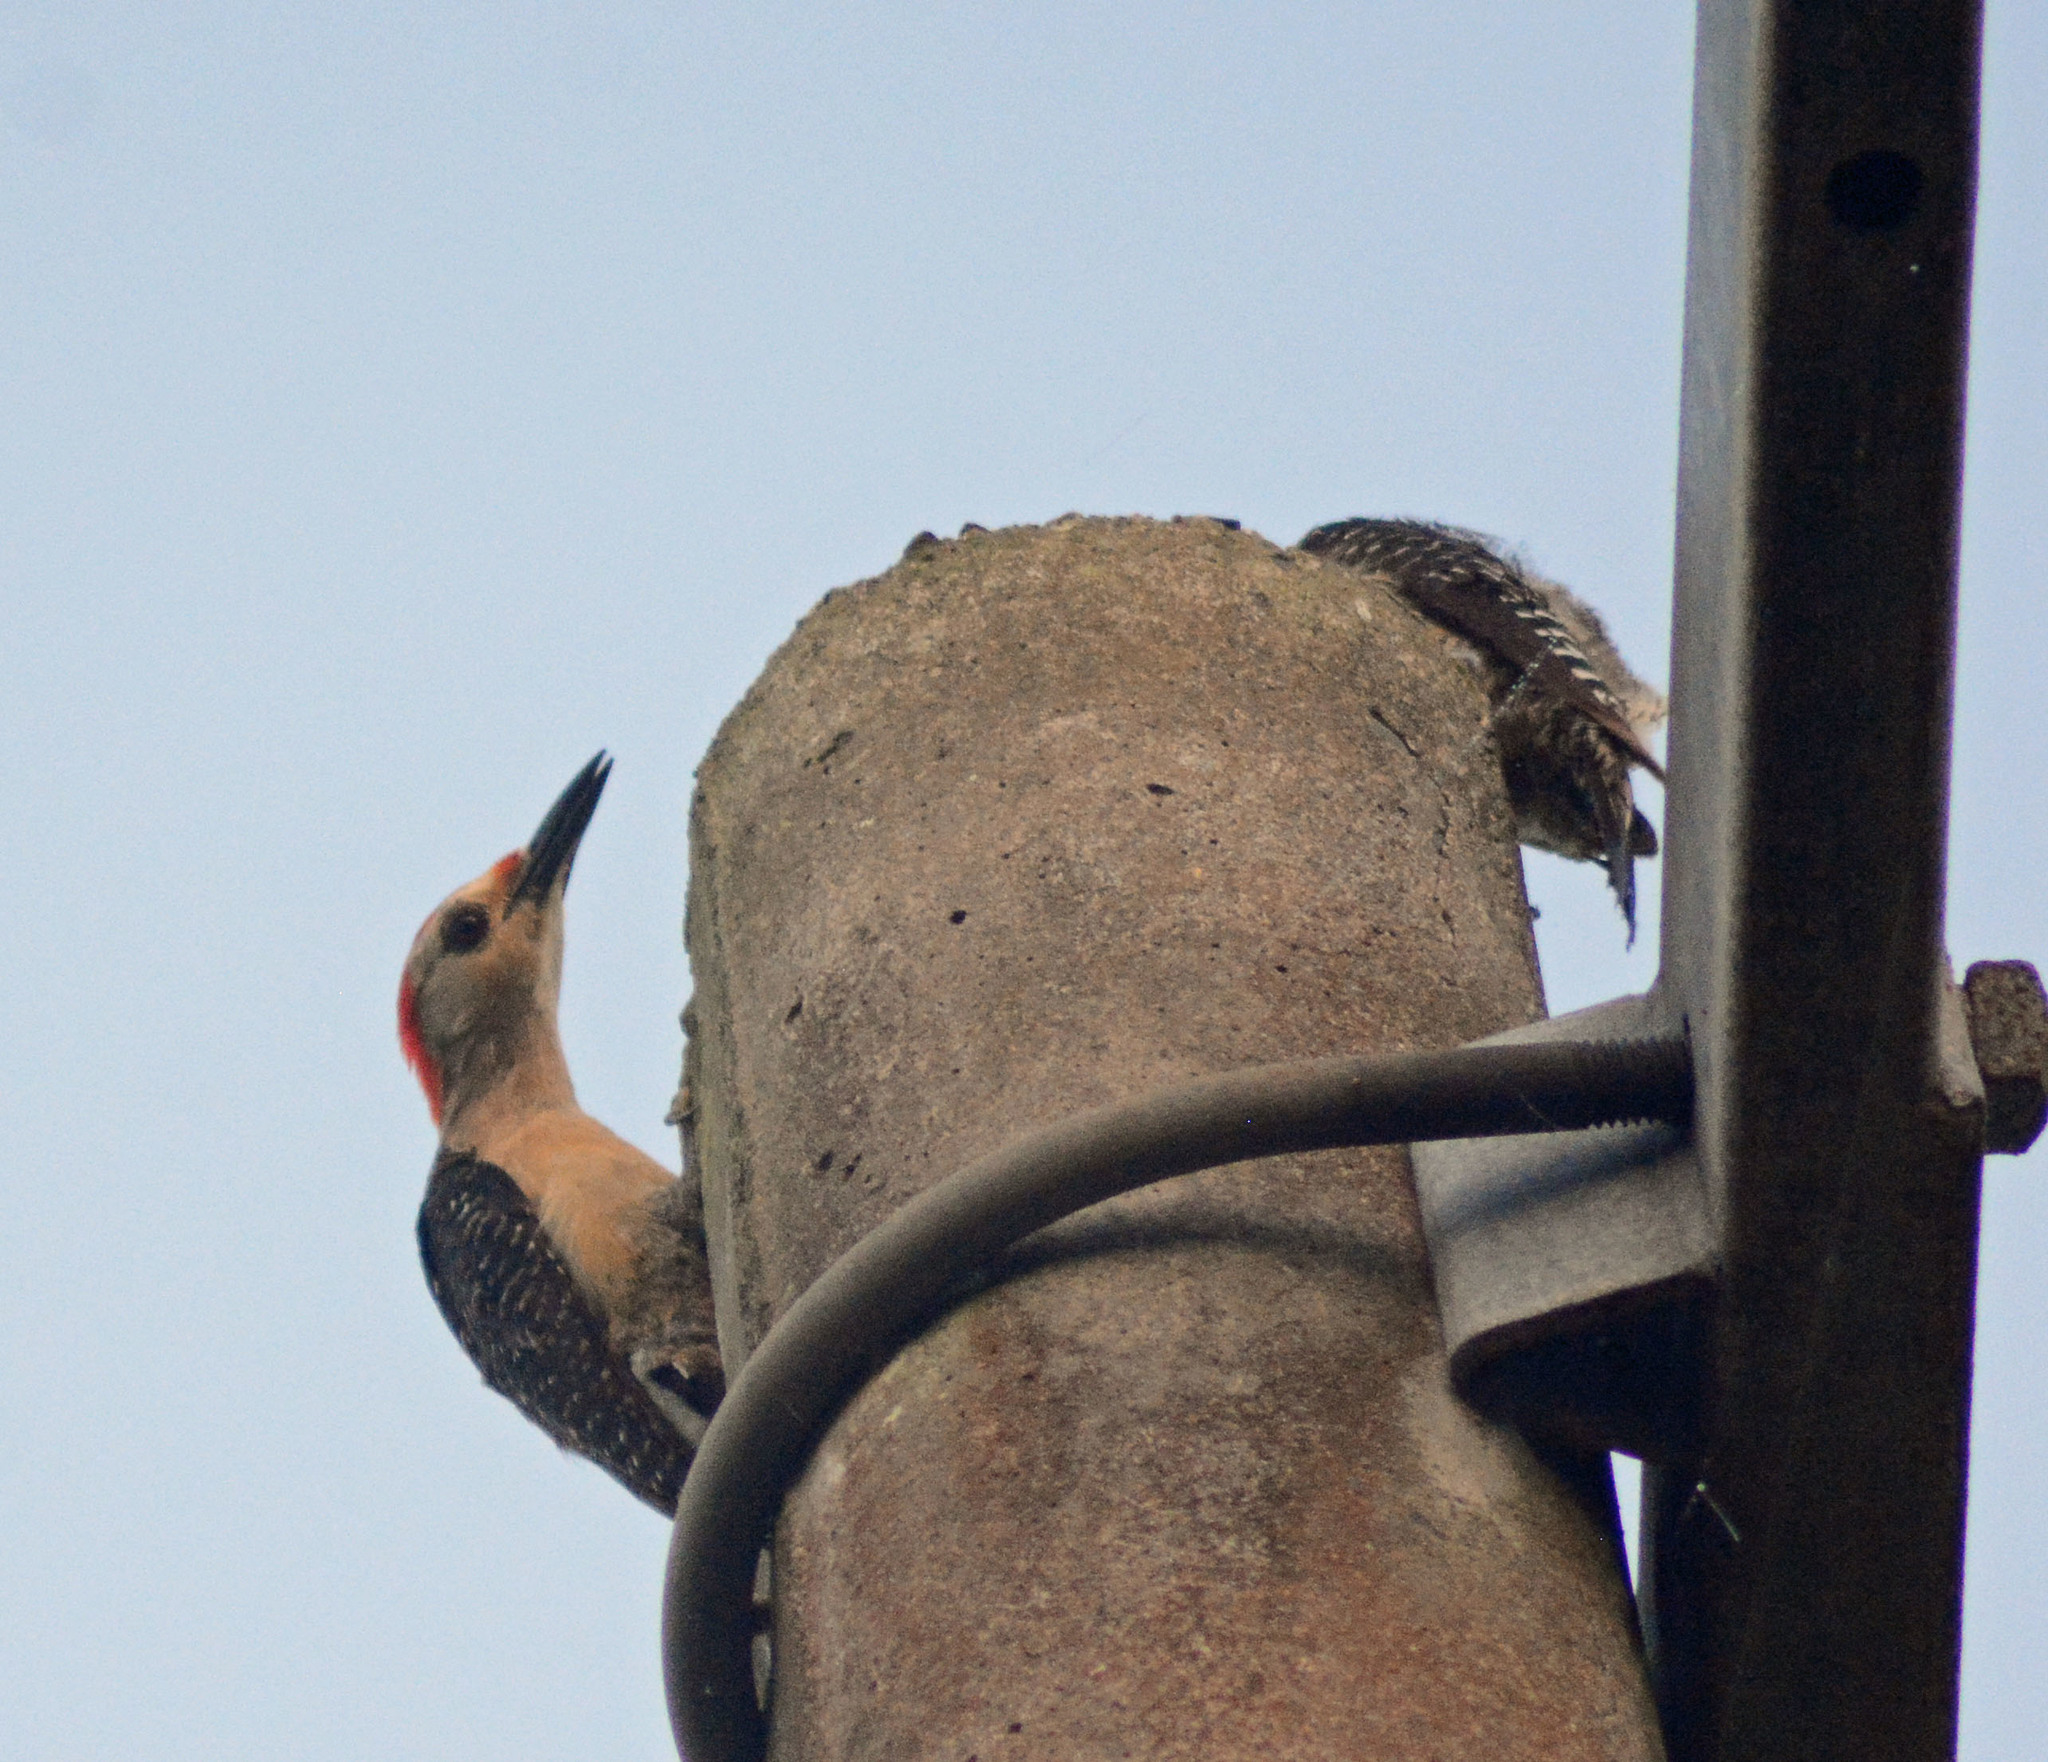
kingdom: Animalia
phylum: Chordata
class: Aves
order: Piciformes
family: Picidae
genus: Melanerpes
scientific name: Melanerpes aurifrons
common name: Golden-fronted woodpecker
